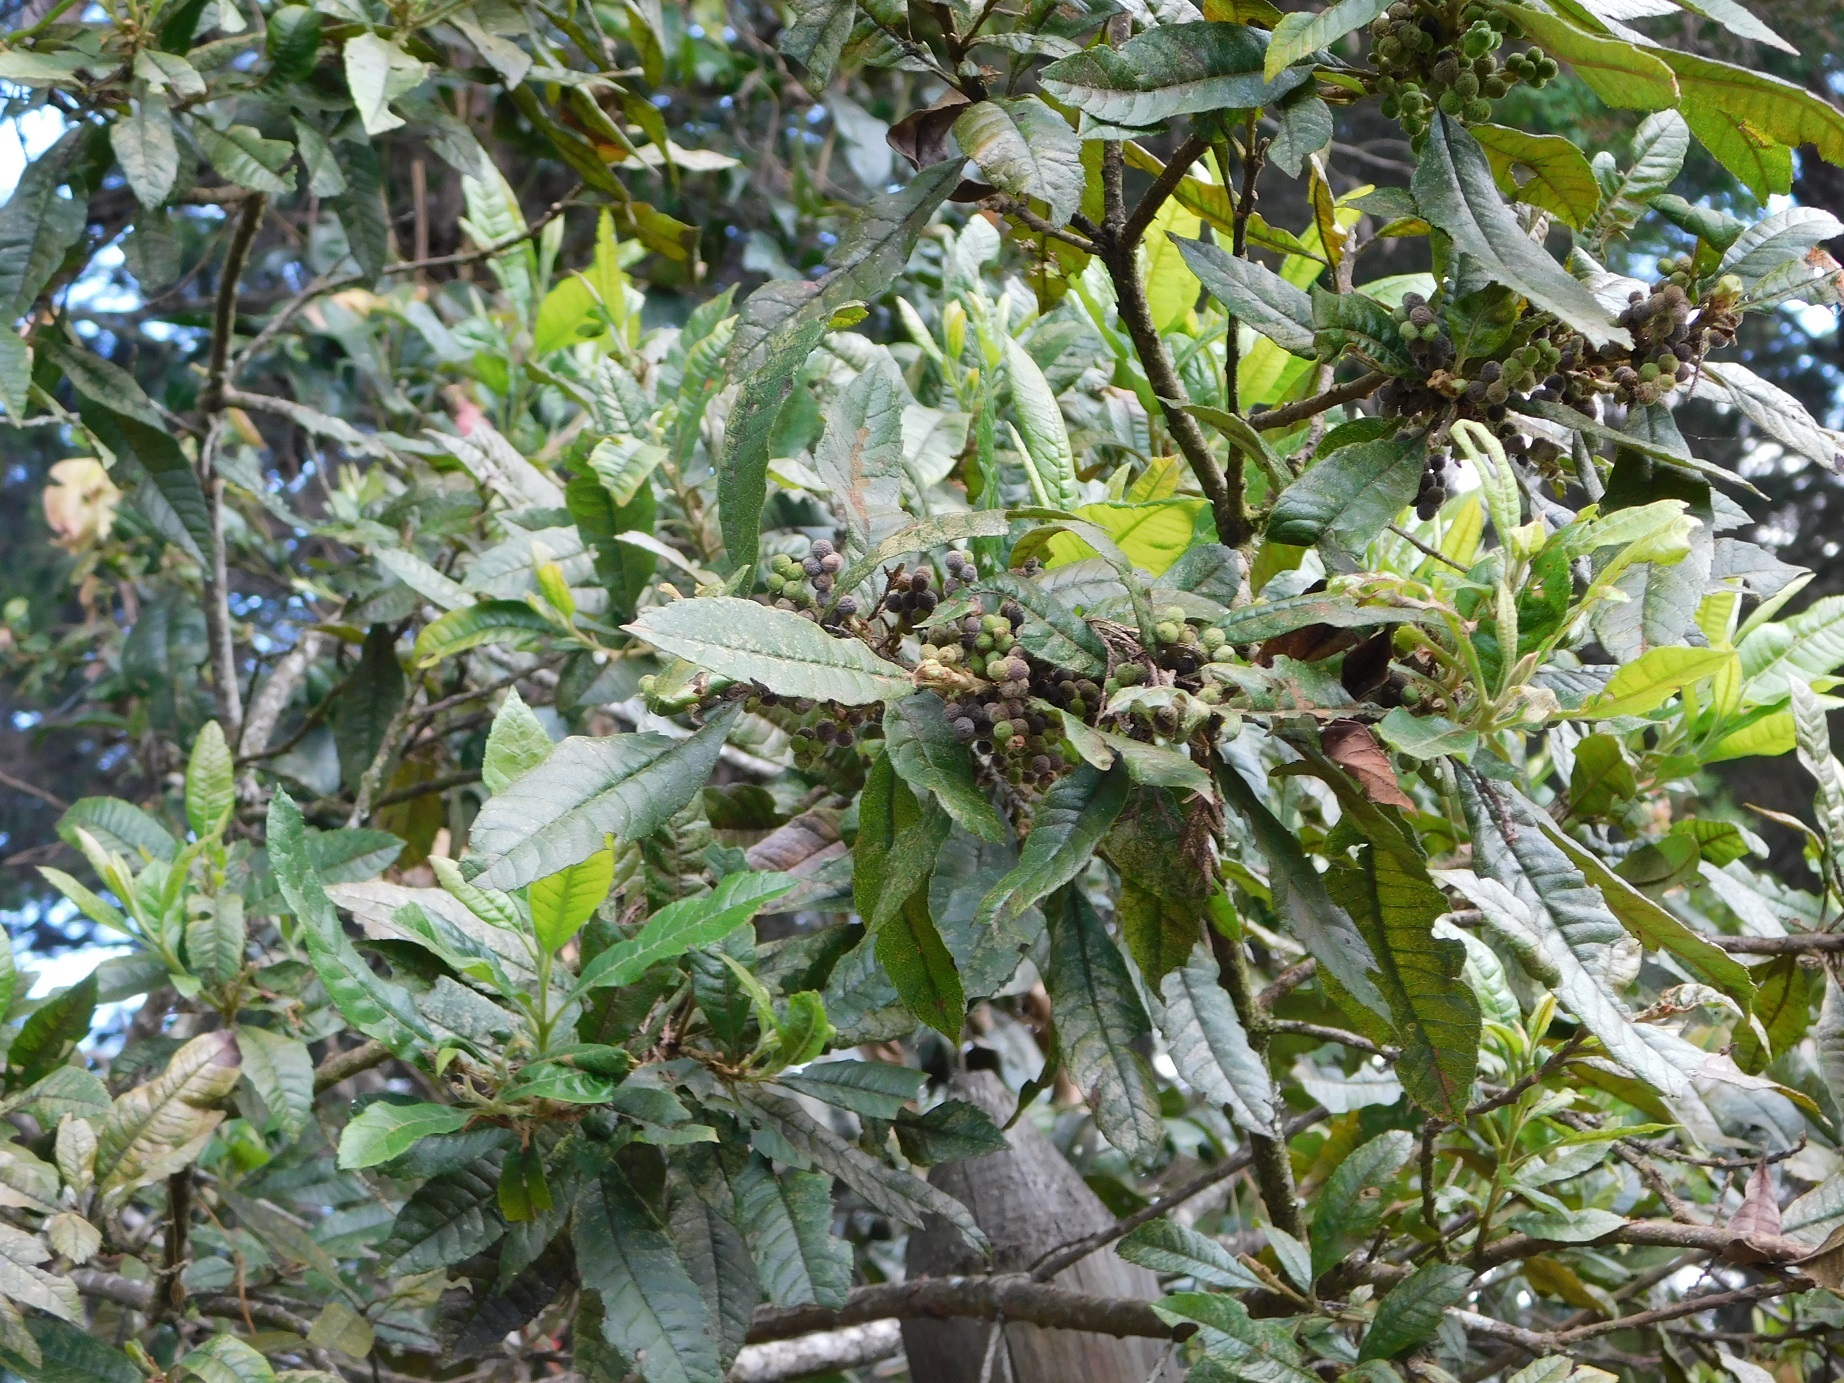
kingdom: Plantae
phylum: Tracheophyta
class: Magnoliopsida
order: Fagales
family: Myricaceae
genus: Morella
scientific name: Morella pubescens
